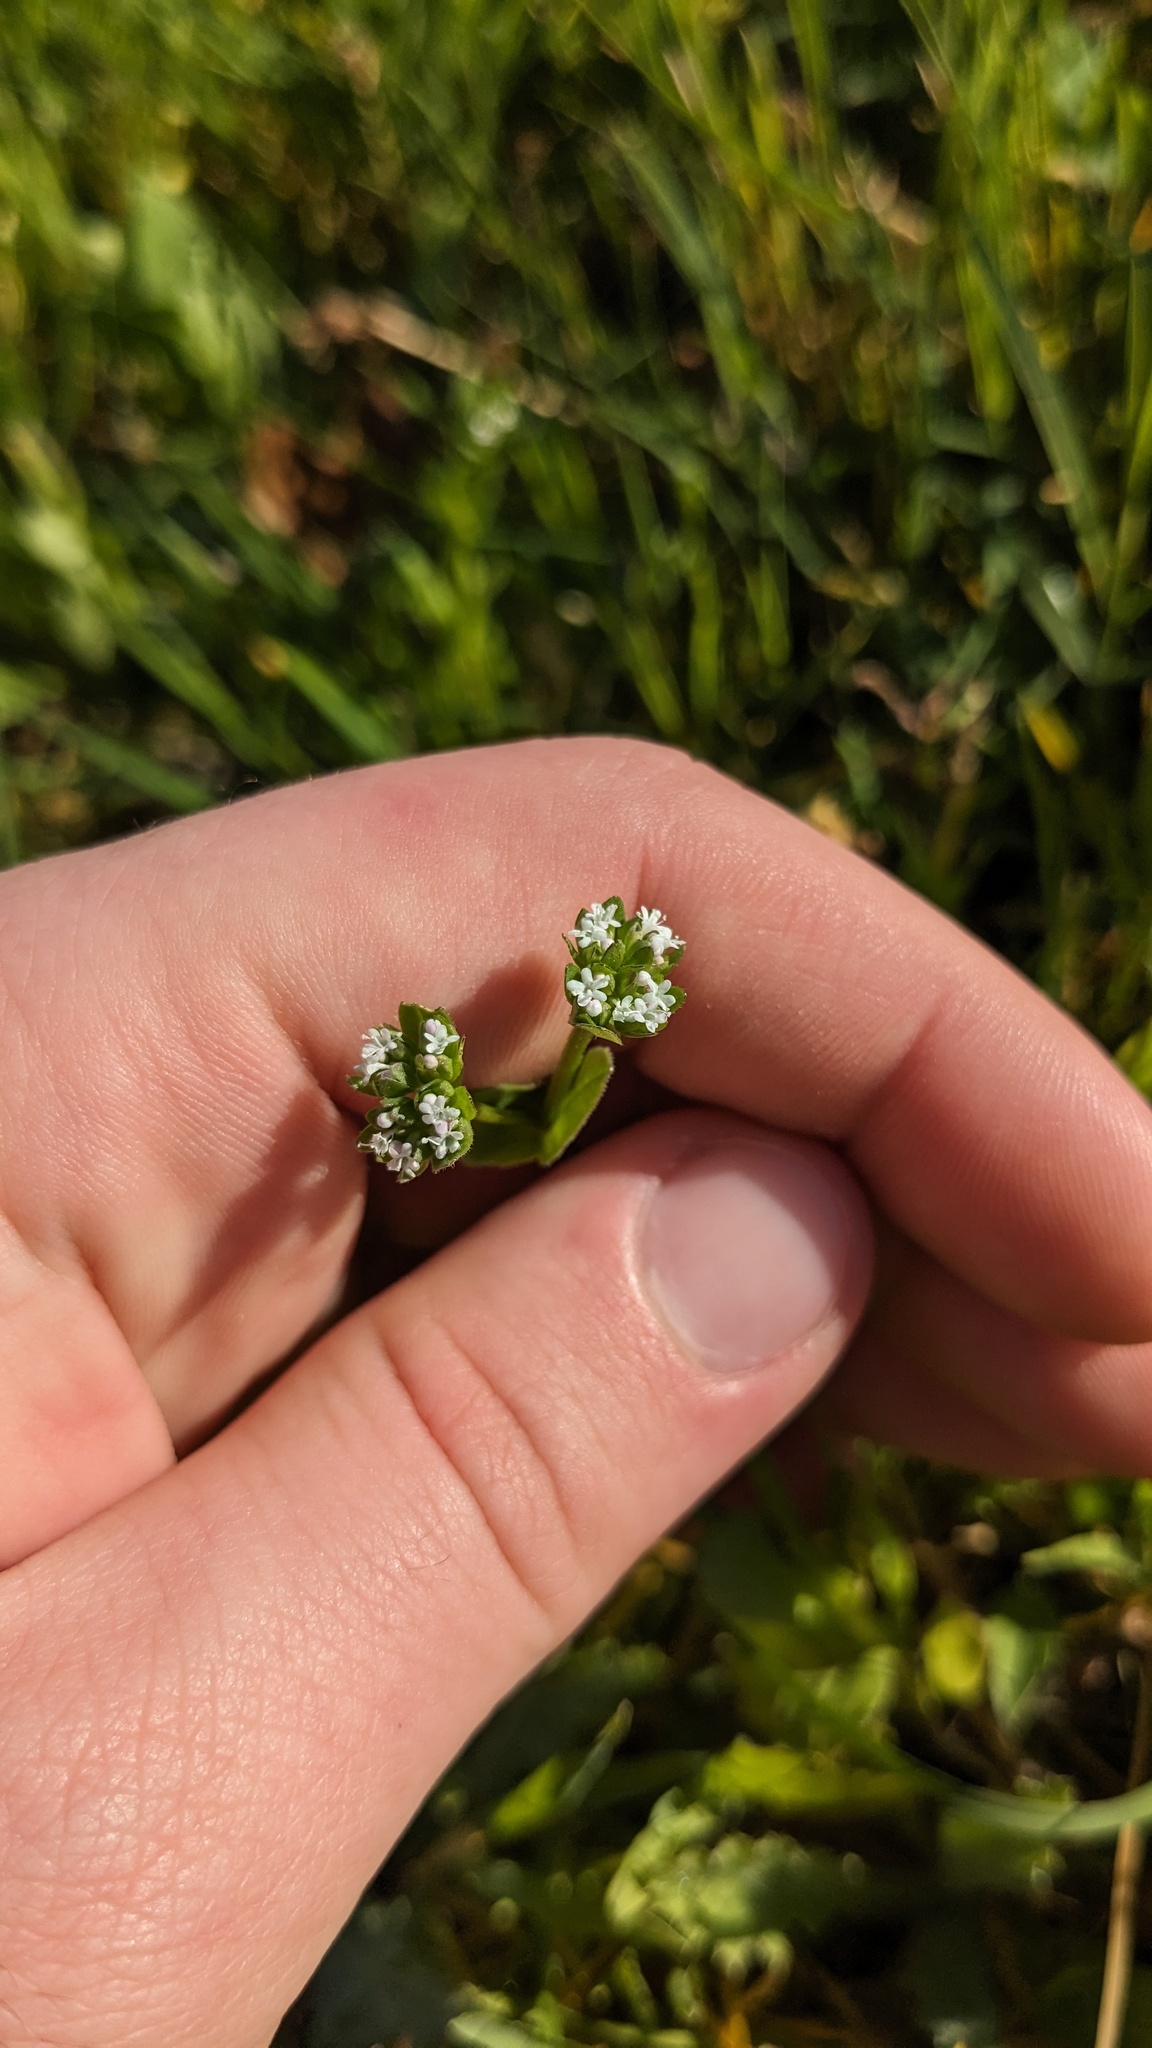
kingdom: Plantae
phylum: Tracheophyta
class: Magnoliopsida
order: Dipsacales
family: Caprifoliaceae
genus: Valerianella
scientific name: Valerianella radiata
